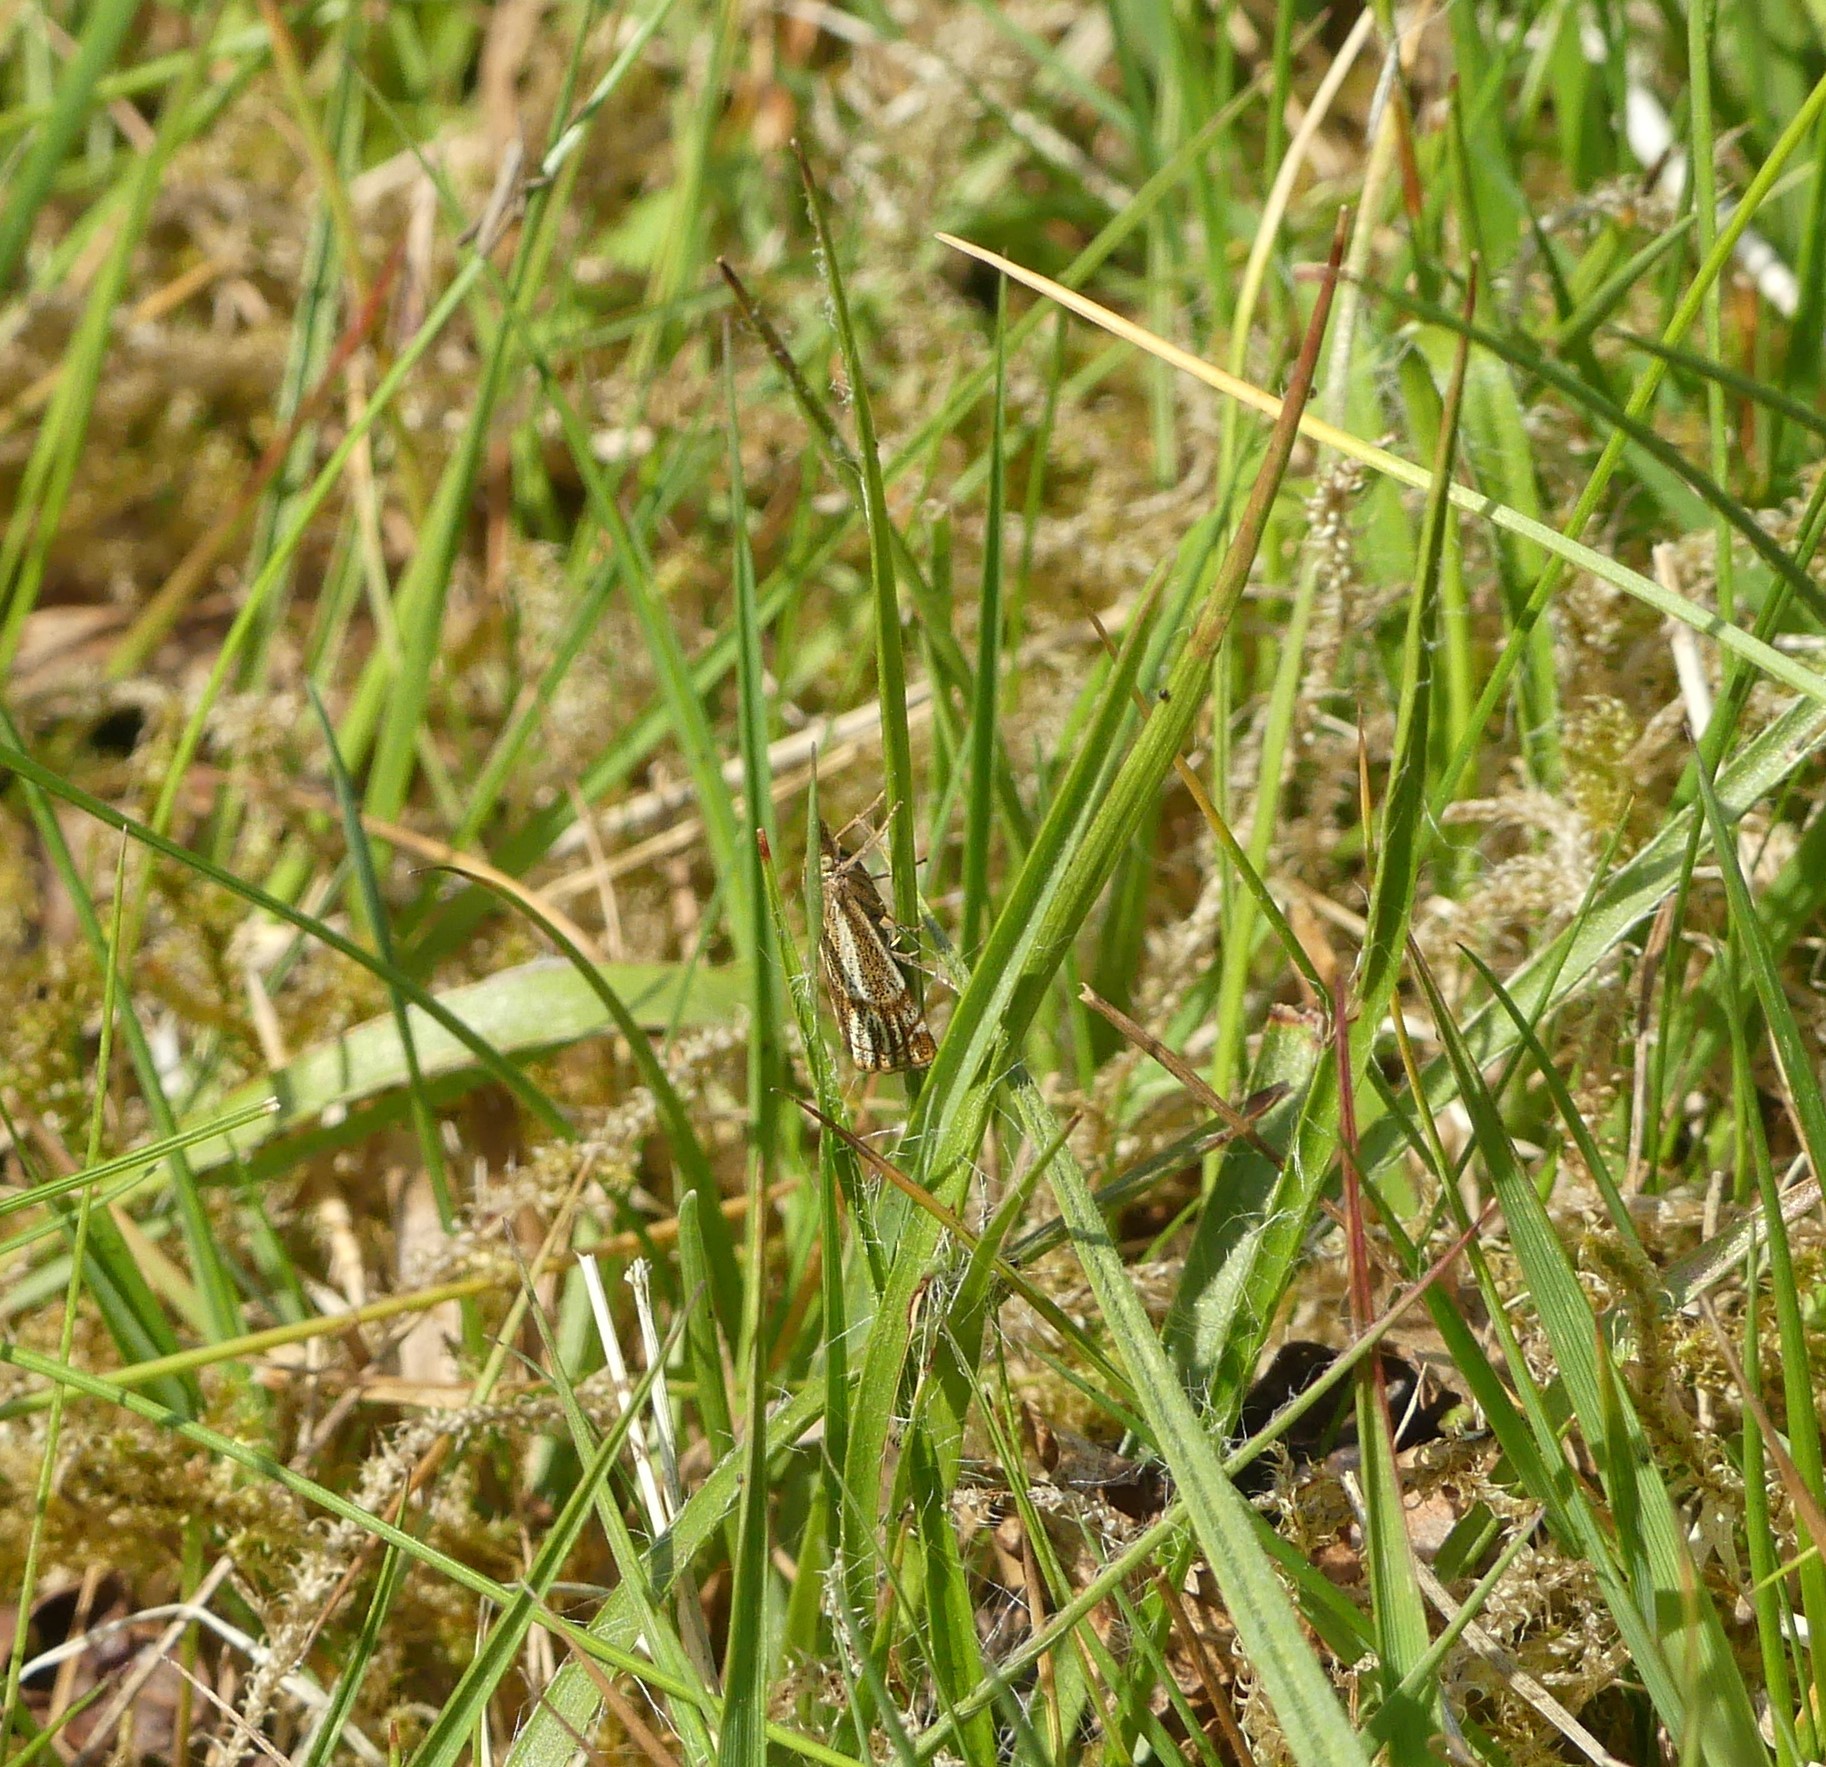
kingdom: Animalia
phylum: Arthropoda
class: Insecta
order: Lepidoptera
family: Crambidae
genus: Thisanotia
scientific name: Thisanotia chrysonuchella
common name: Powdered grass-veneer
